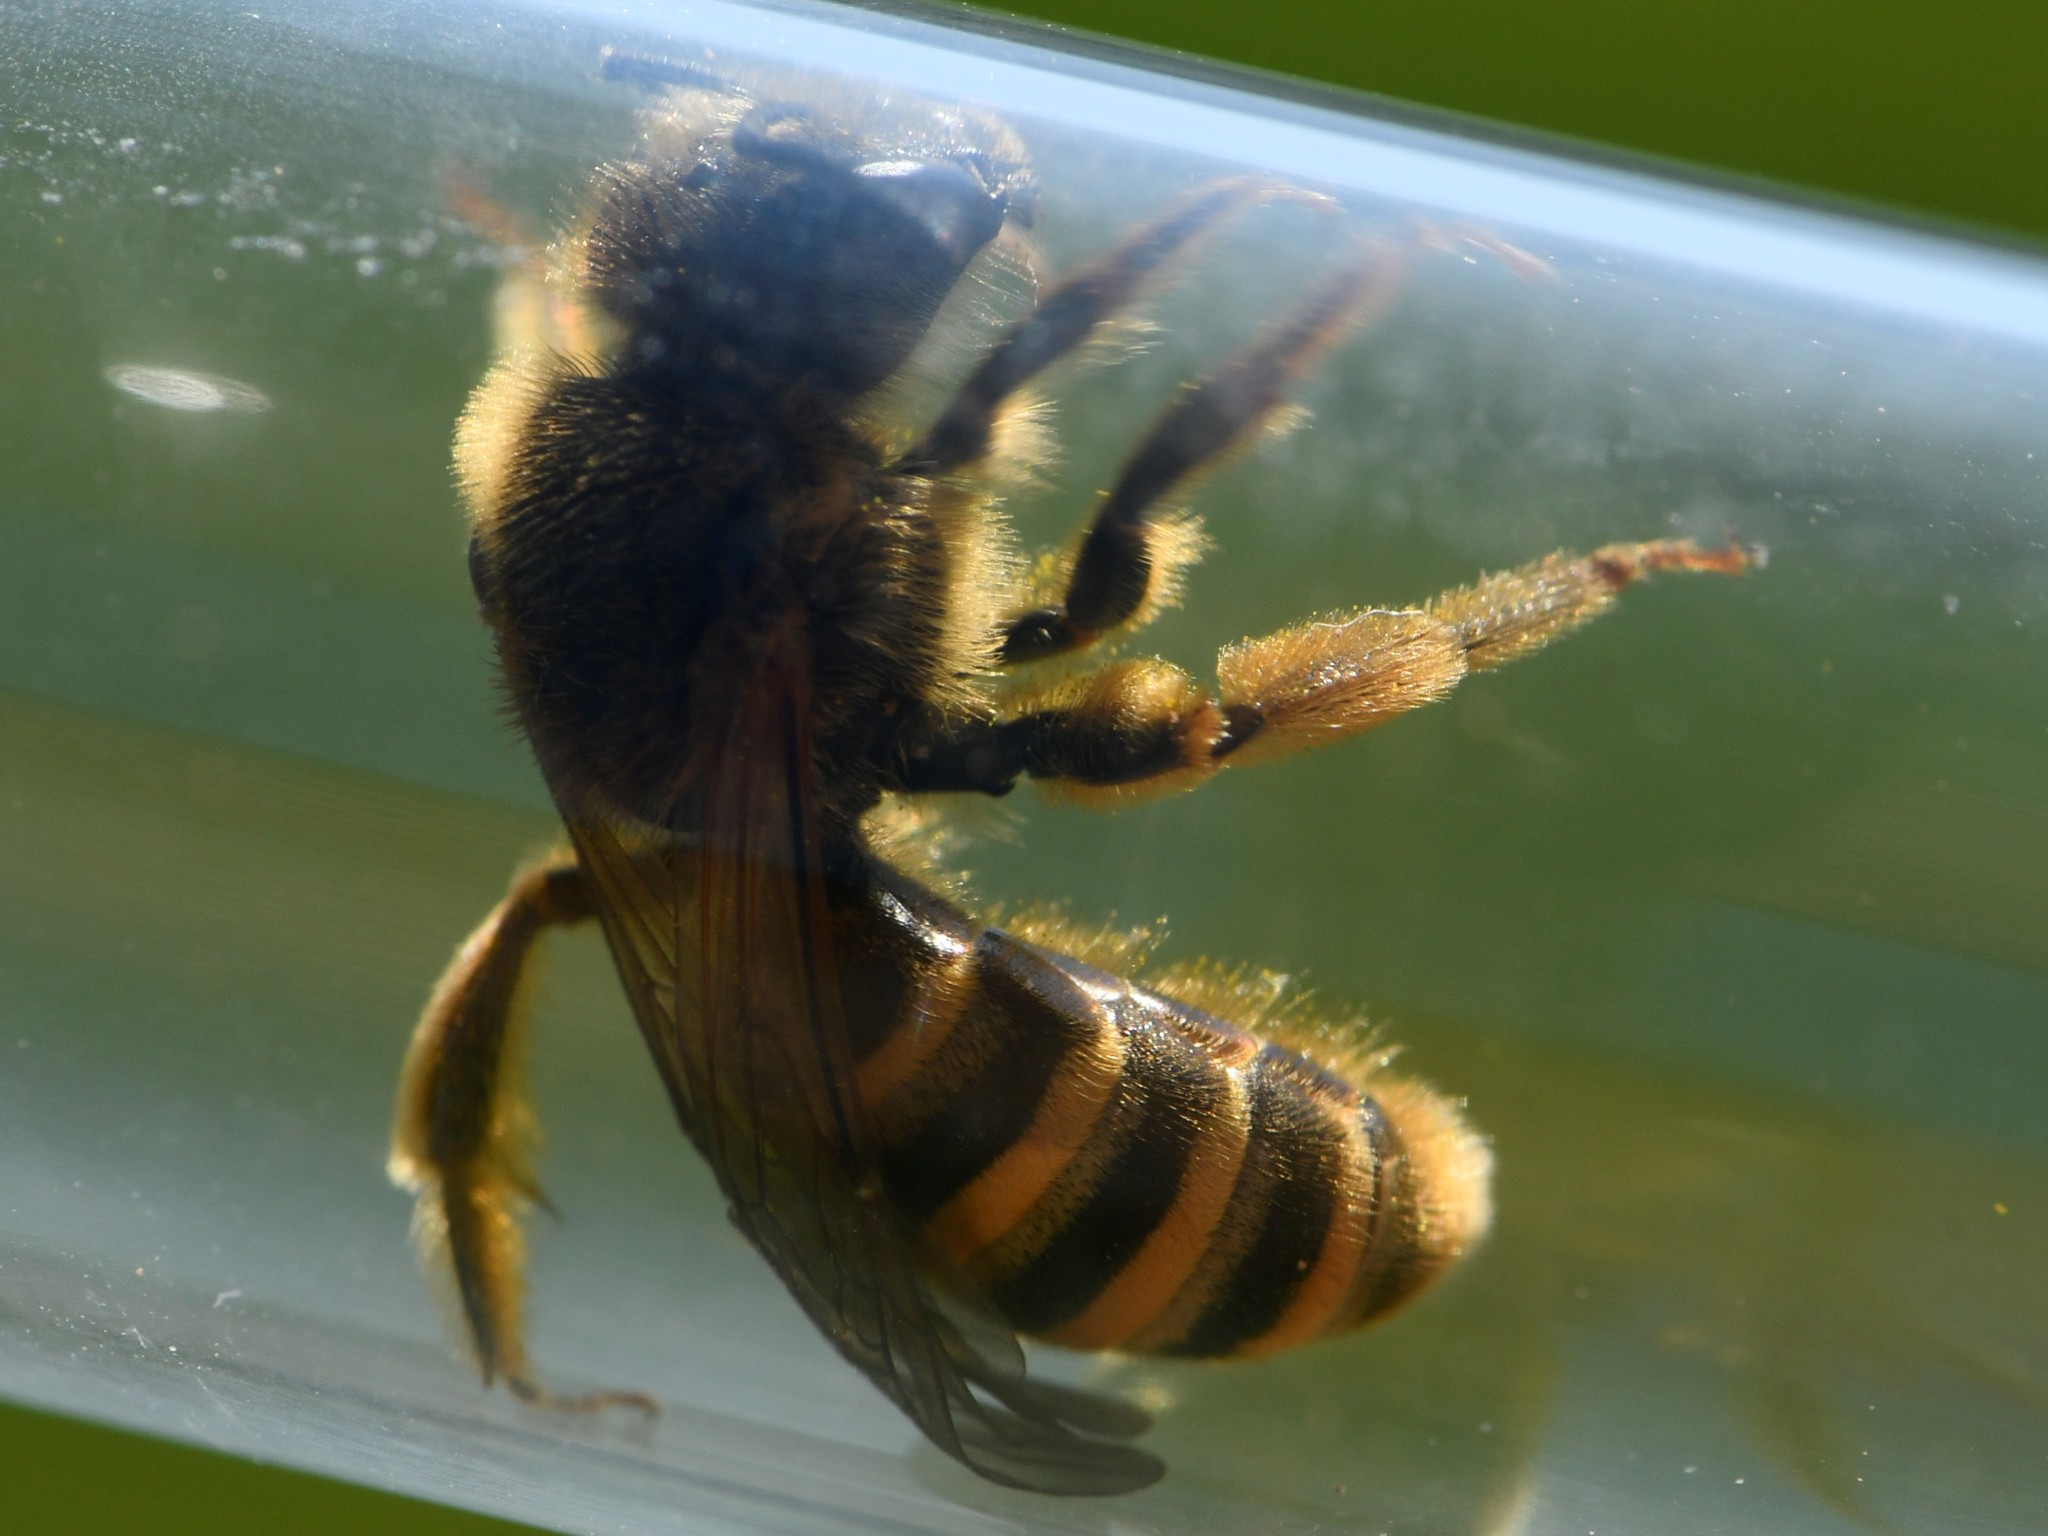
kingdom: Animalia
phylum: Arthropoda
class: Insecta
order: Hymenoptera
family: Halictidae
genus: Halictus
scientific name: Halictus scabiosae
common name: Great banded furrow bee
